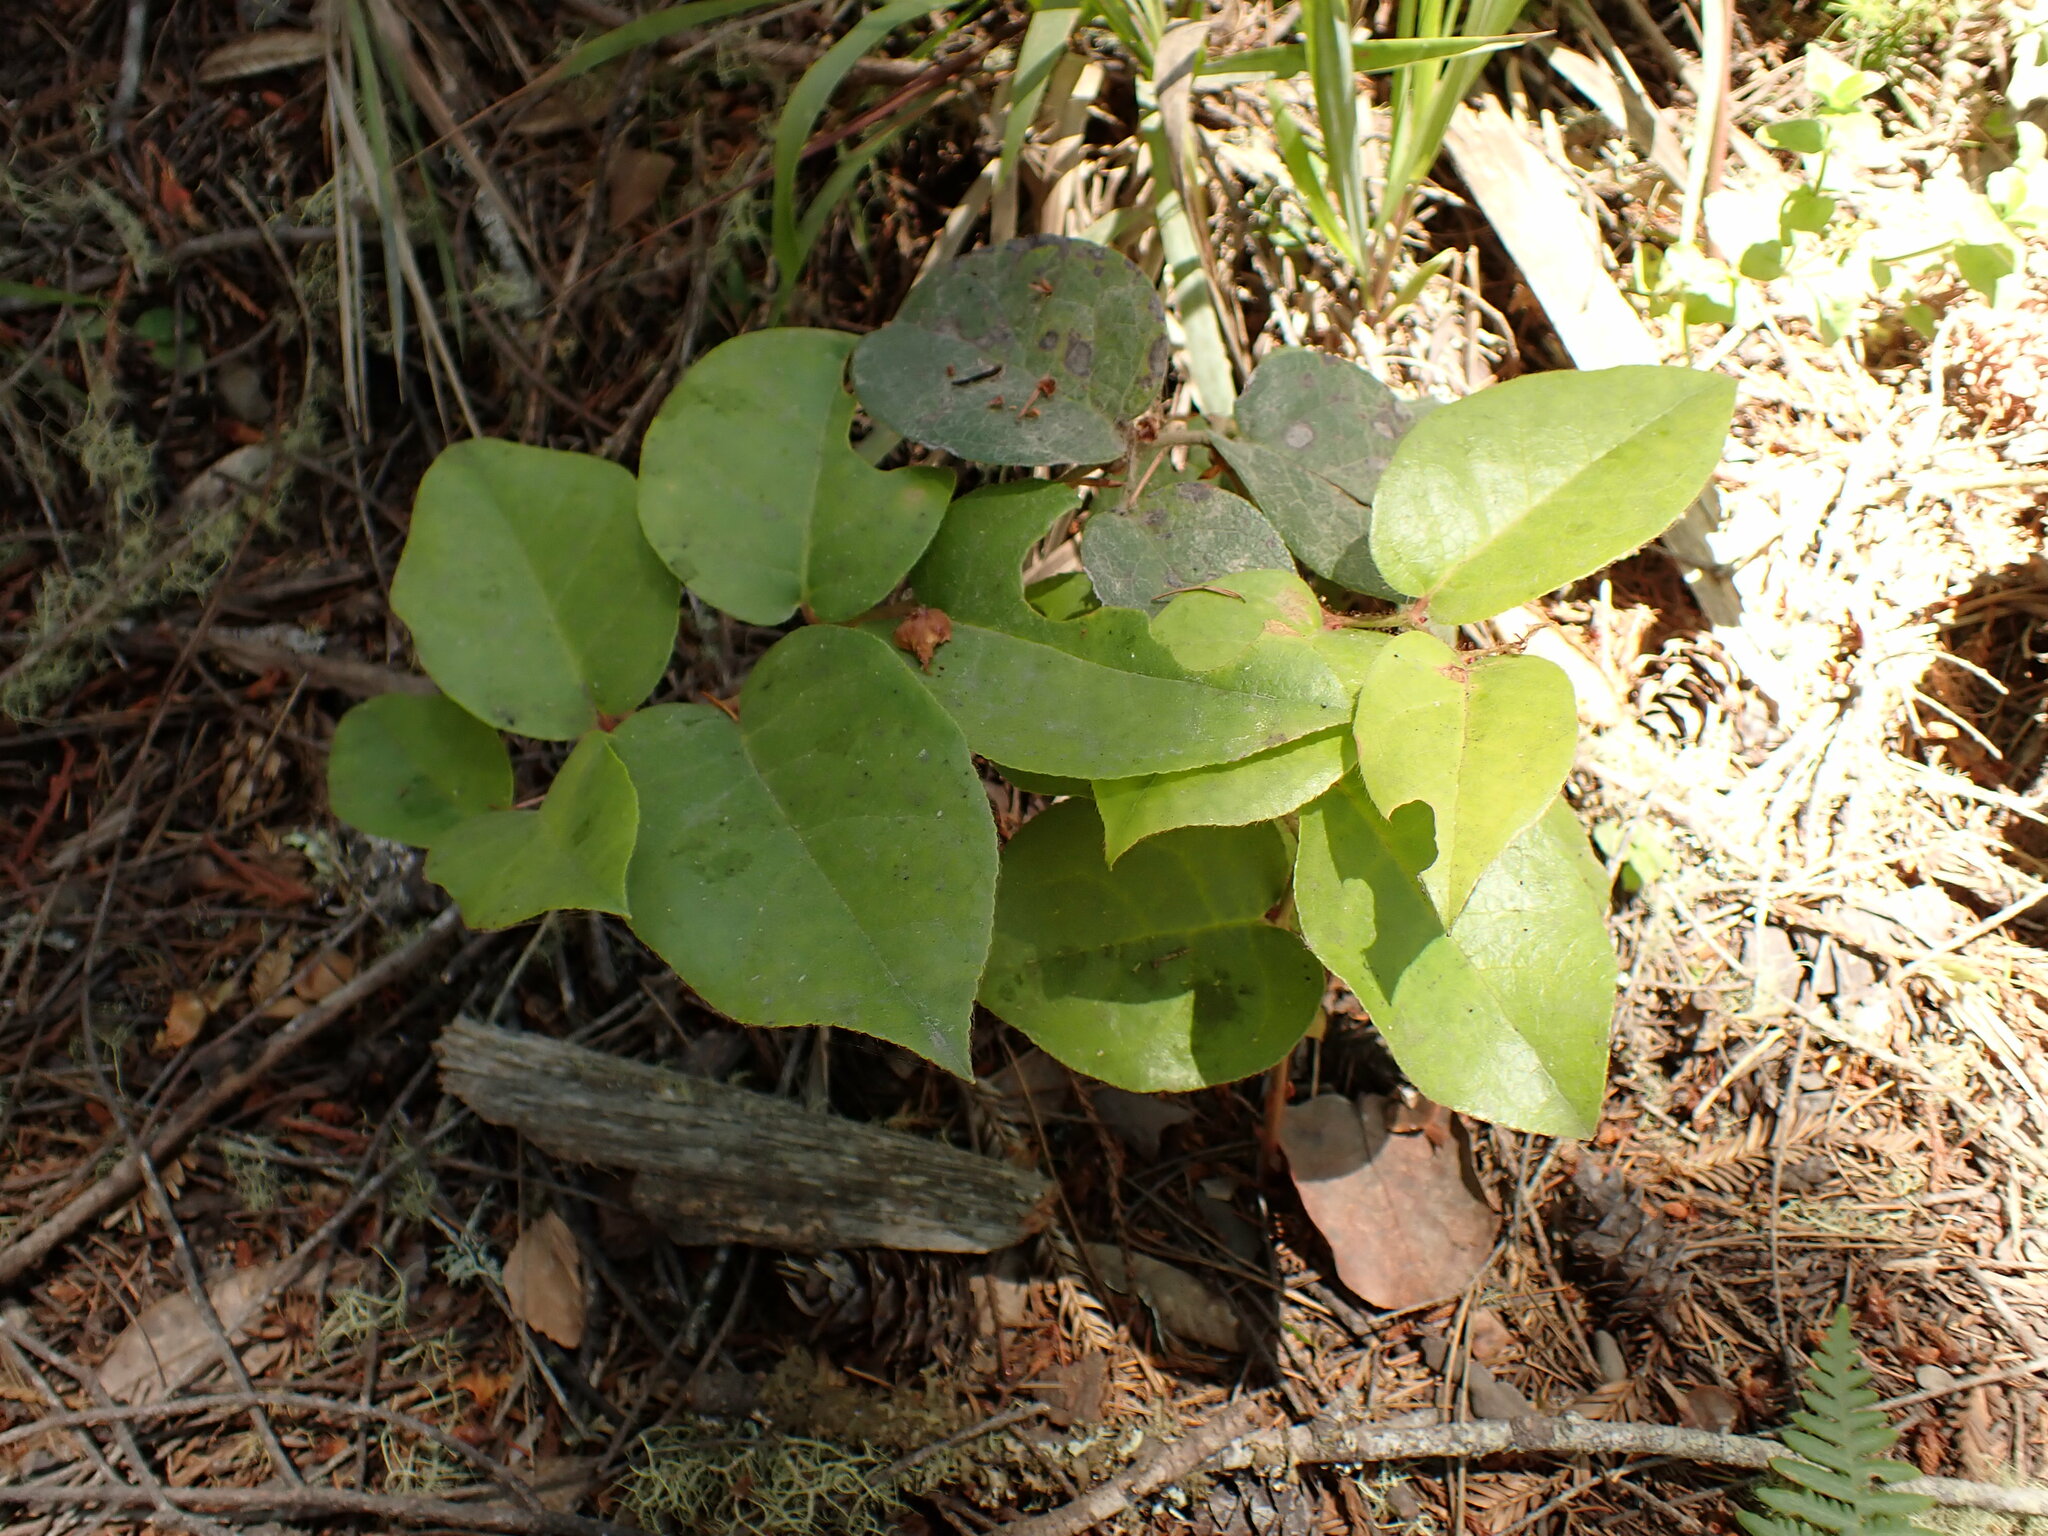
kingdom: Plantae
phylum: Tracheophyta
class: Magnoliopsida
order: Ericales
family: Ericaceae
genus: Gaultheria
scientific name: Gaultheria shallon
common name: Shallon
